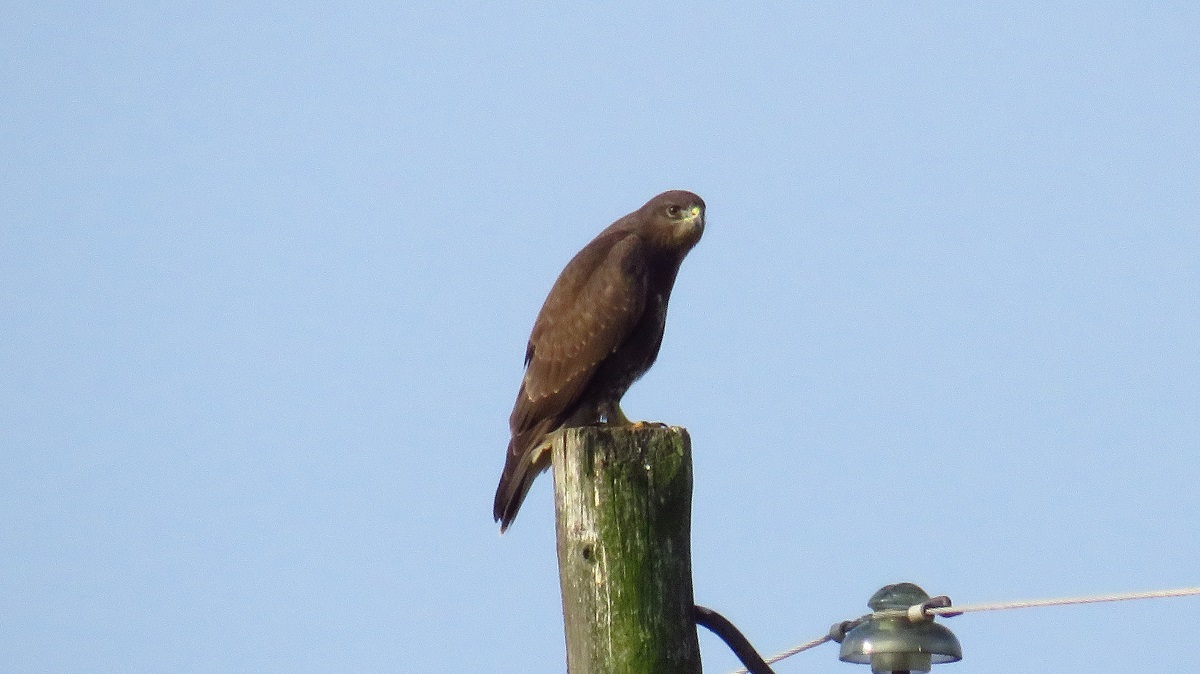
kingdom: Animalia
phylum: Chordata
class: Aves
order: Accipitriformes
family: Accipitridae
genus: Buteo
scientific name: Buteo buteo
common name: Common buzzard
